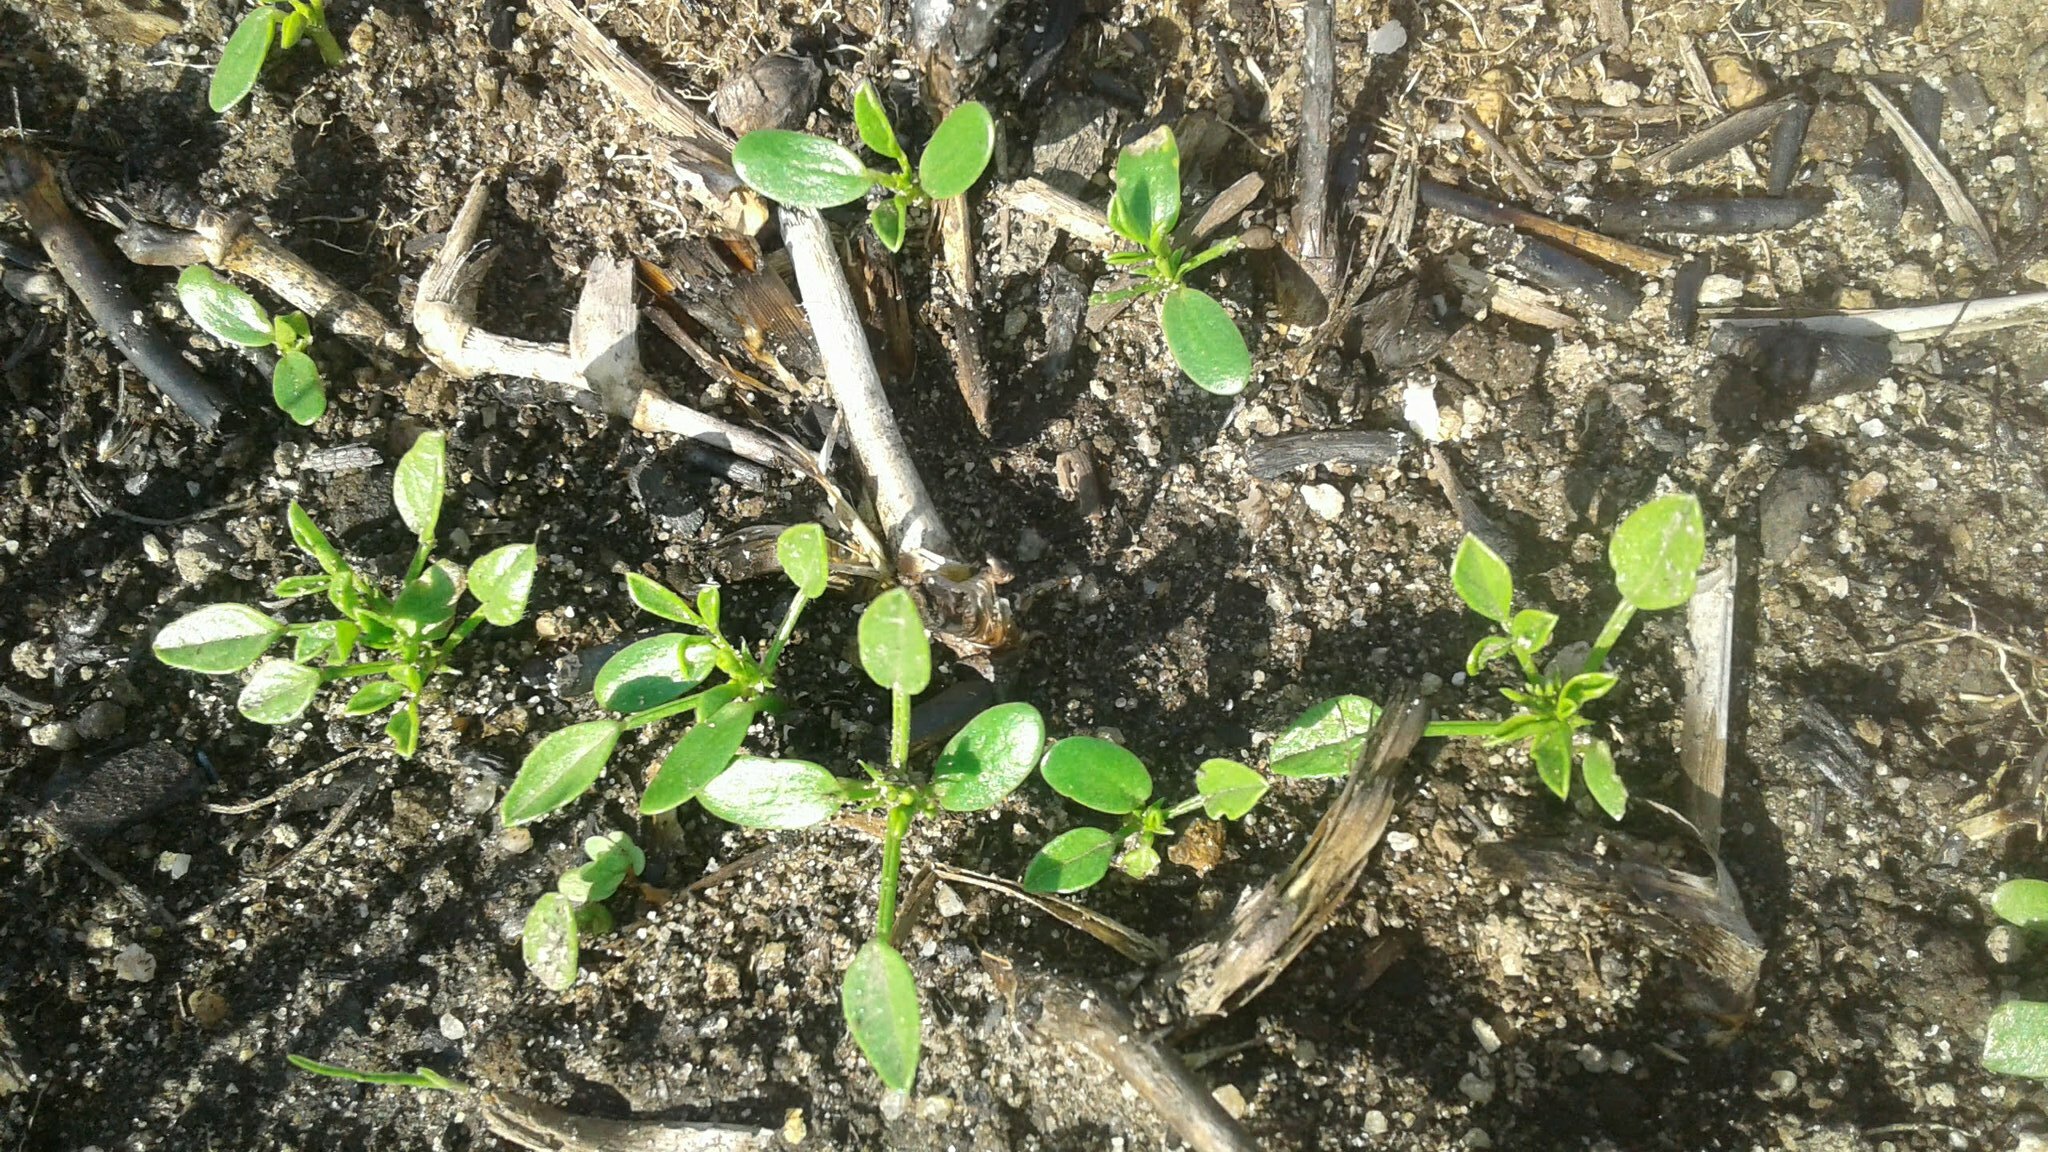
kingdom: Plantae
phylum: Tracheophyta
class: Magnoliopsida
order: Fabales
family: Fabaceae
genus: Psoralea
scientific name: Psoralea pinnata
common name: African scurfpea
